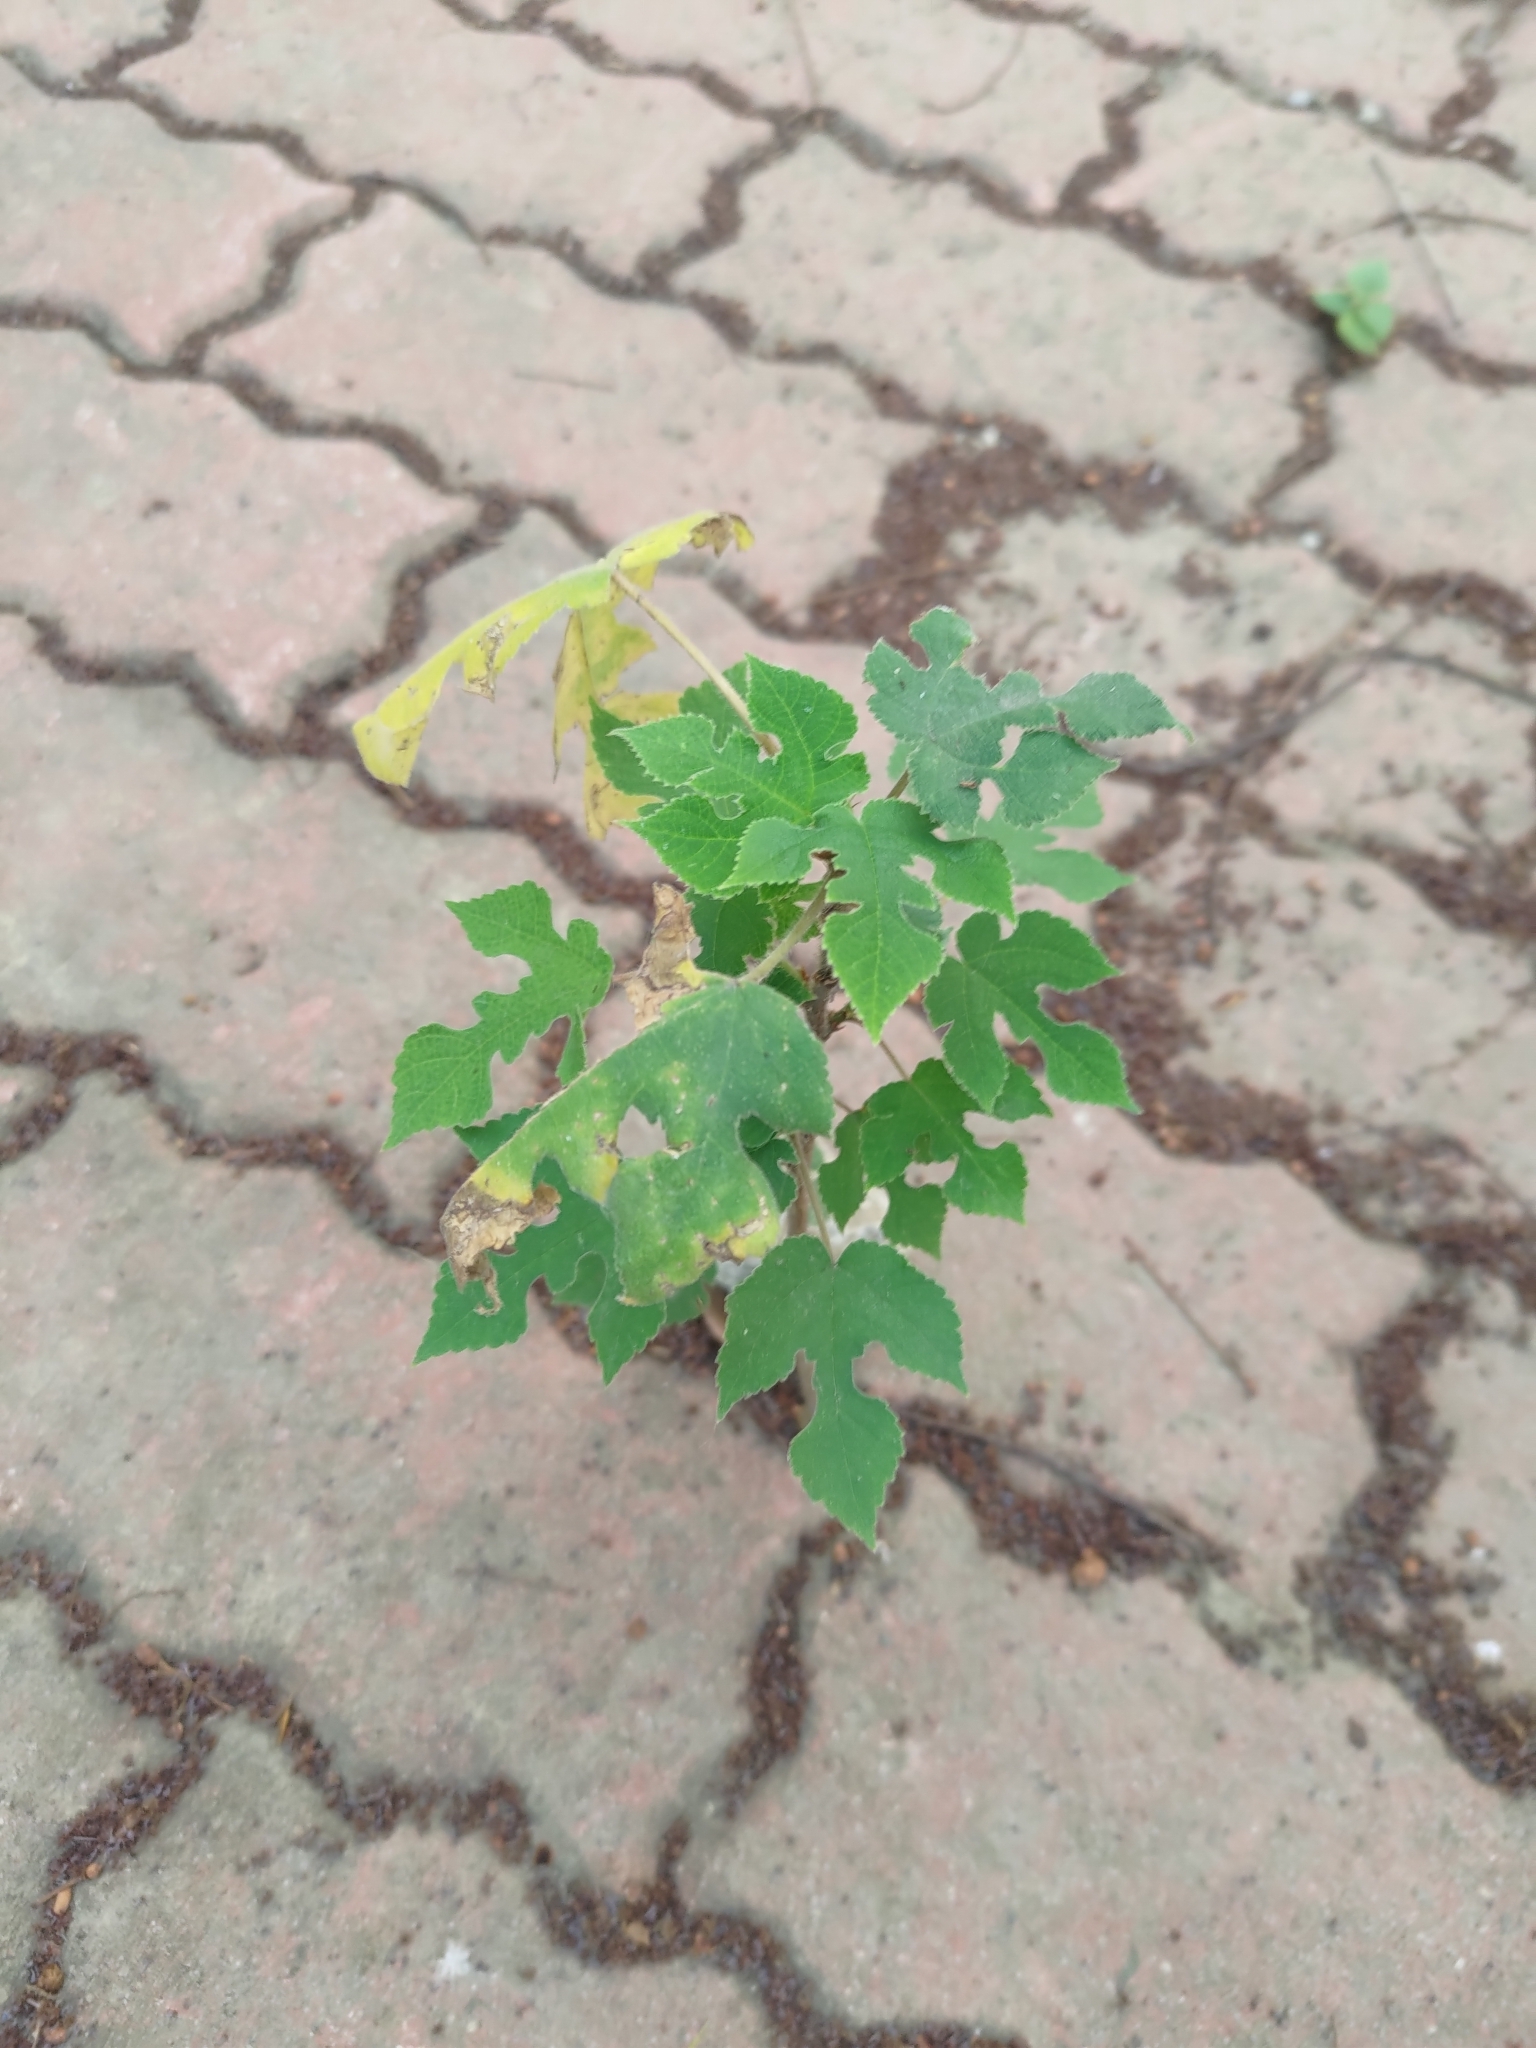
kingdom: Plantae
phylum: Tracheophyta
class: Magnoliopsida
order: Rosales
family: Moraceae
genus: Broussonetia
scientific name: Broussonetia papyrifera
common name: Paper mulberry
